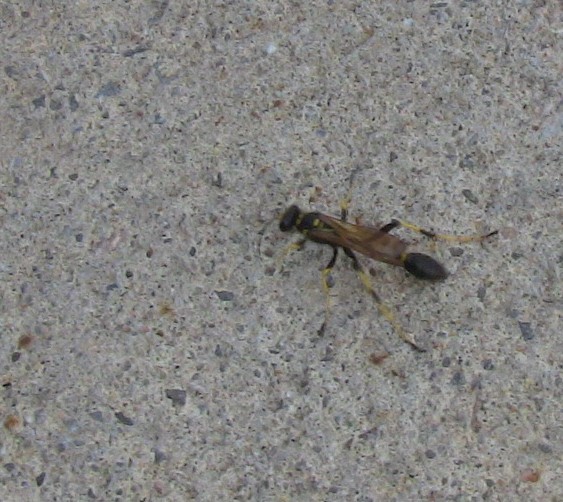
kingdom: Animalia
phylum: Arthropoda
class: Insecta
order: Hymenoptera
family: Sphecidae
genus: Sceliphron
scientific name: Sceliphron caementarium
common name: Mud dauber
